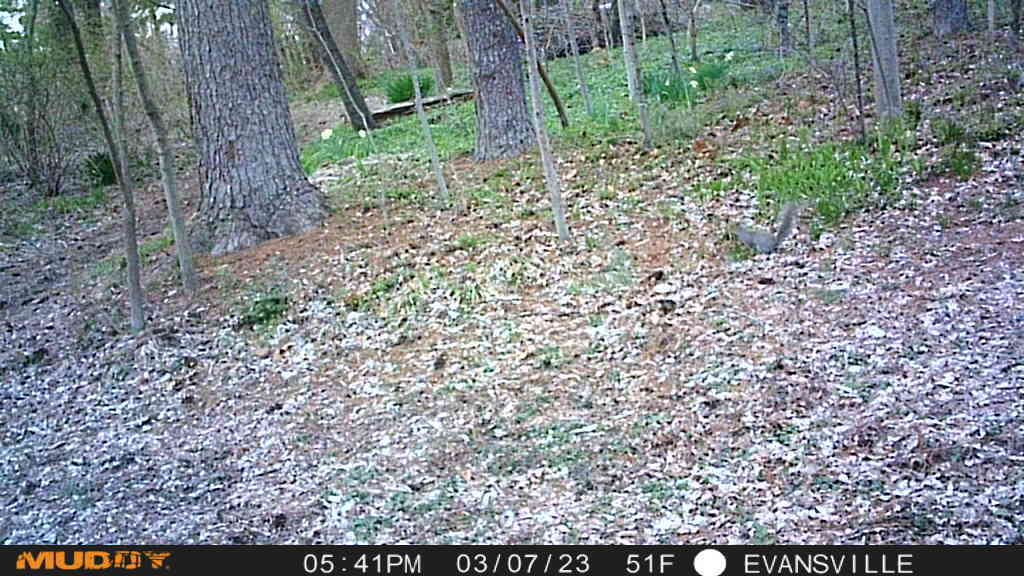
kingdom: Animalia
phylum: Chordata
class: Mammalia
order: Rodentia
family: Sciuridae
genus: Sciurus
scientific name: Sciurus carolinensis
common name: Eastern gray squirrel
